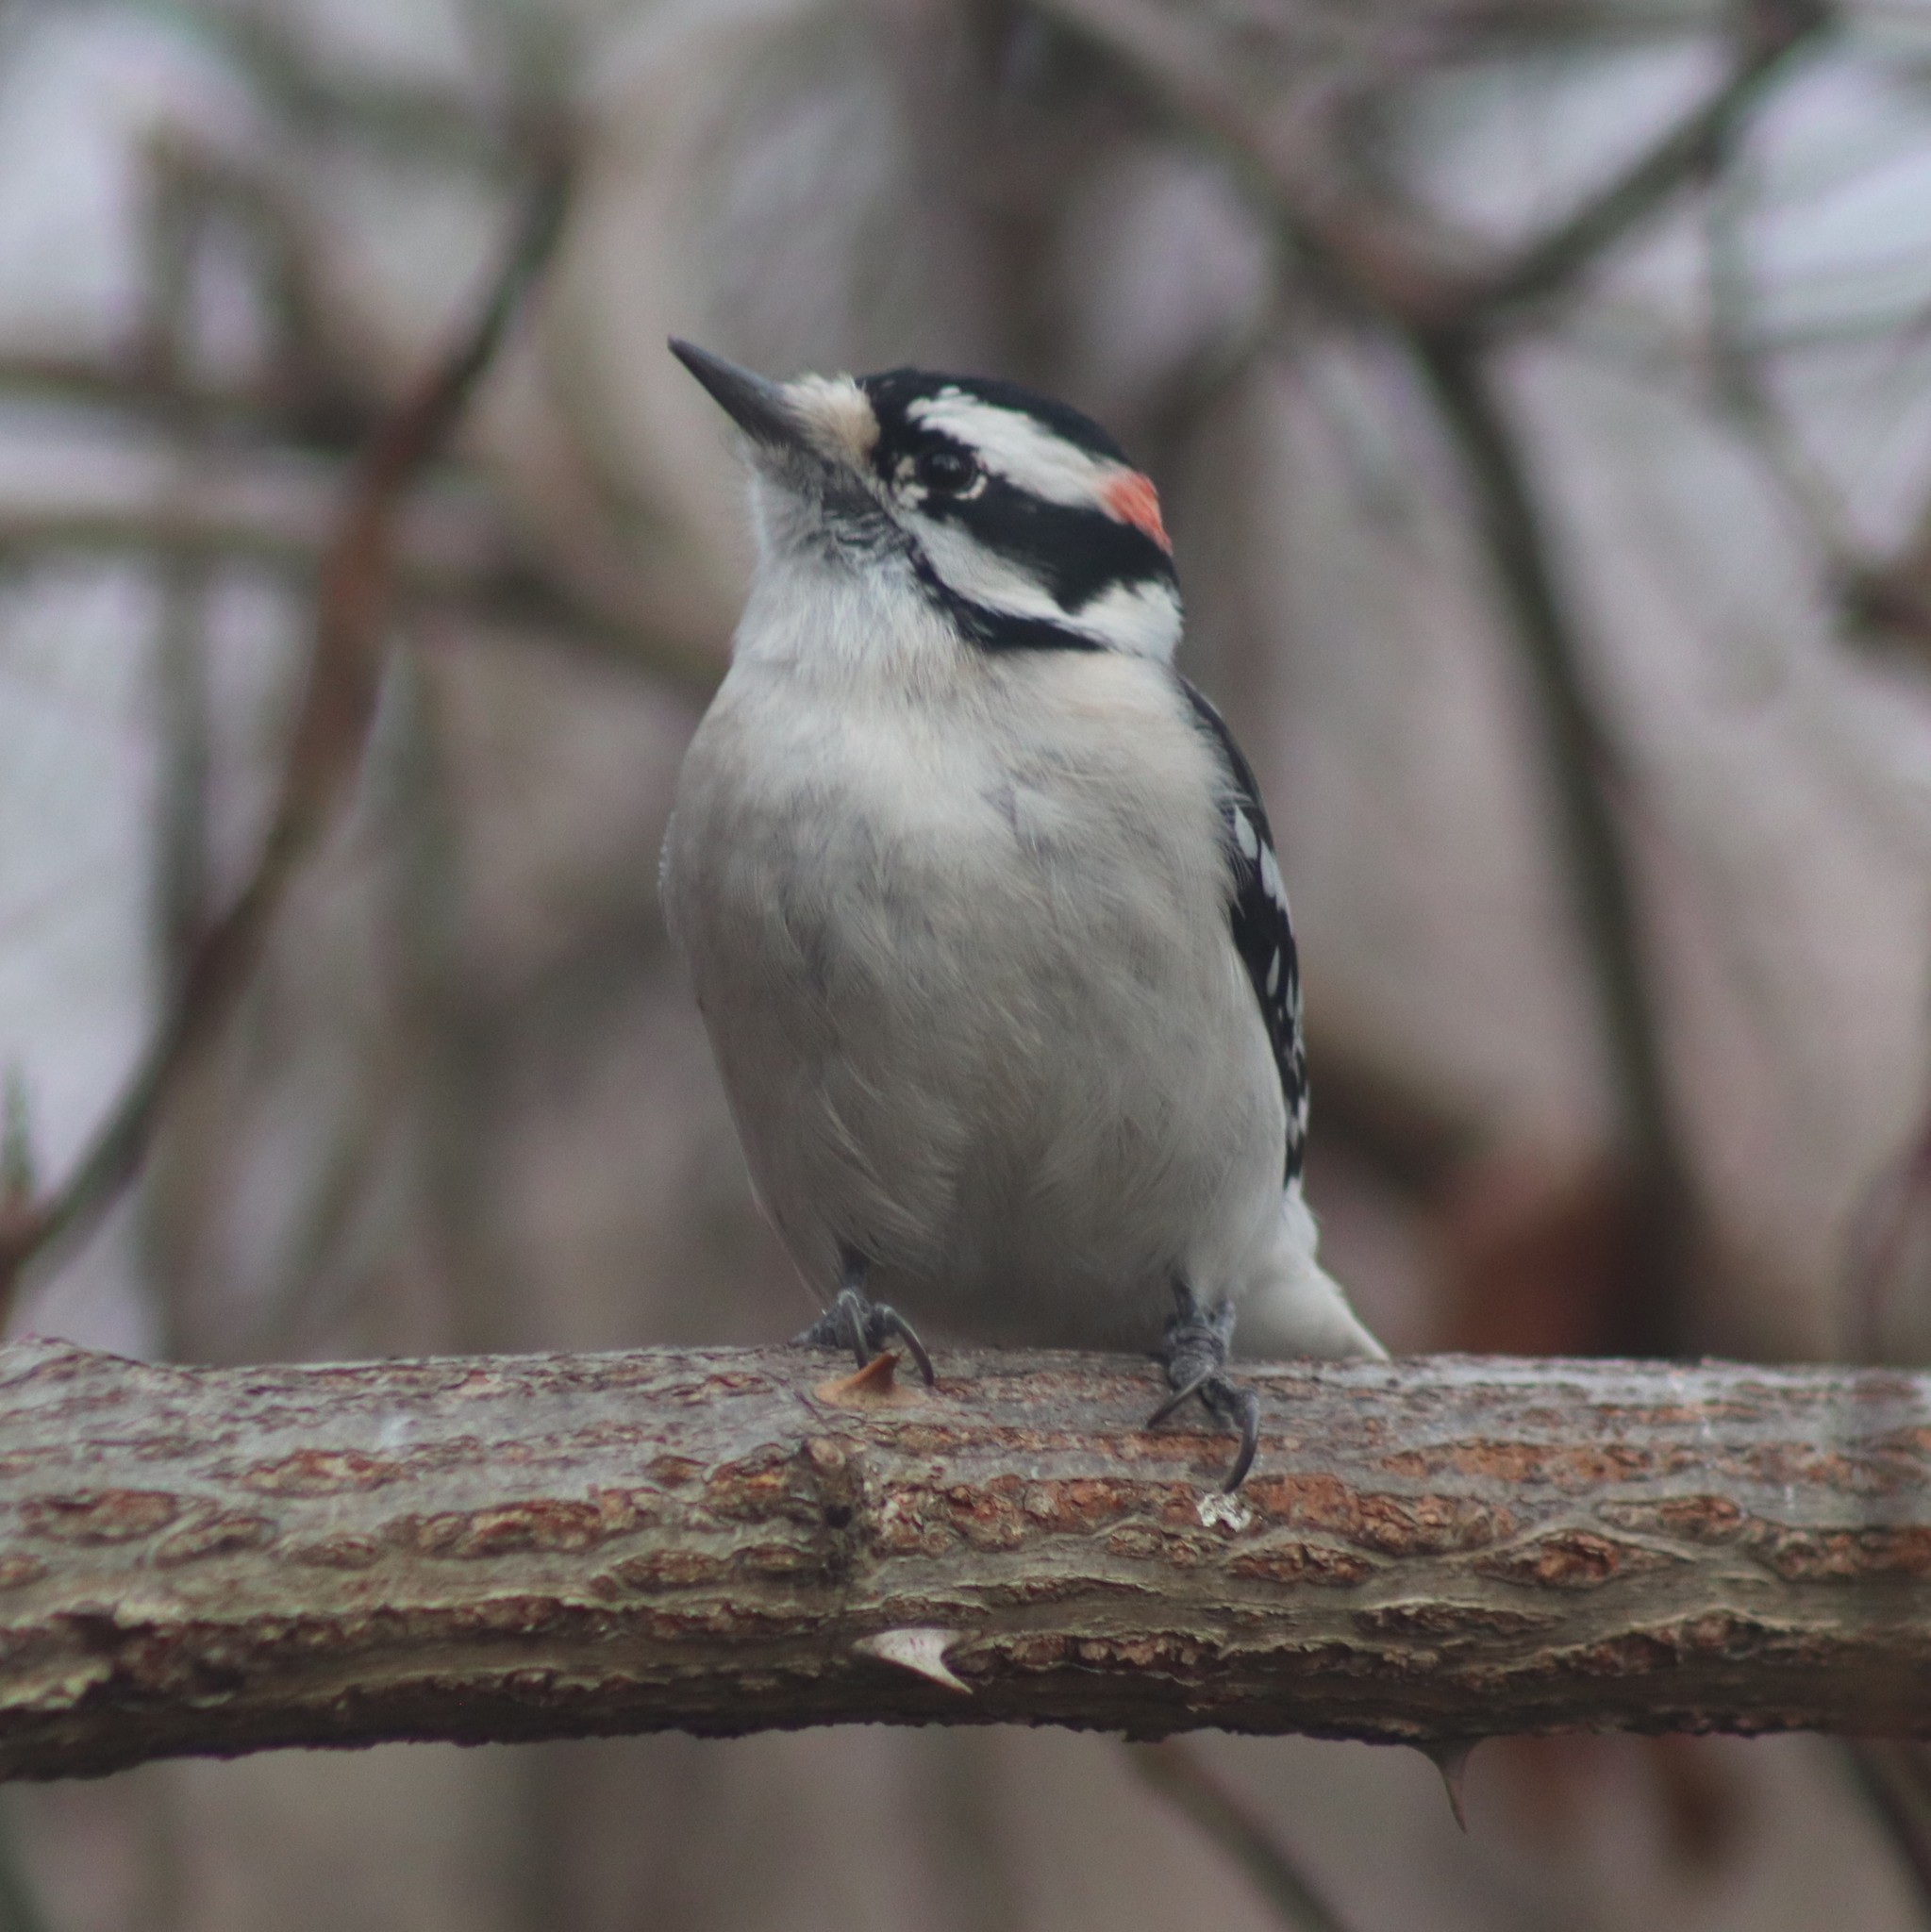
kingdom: Animalia
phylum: Chordata
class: Aves
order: Piciformes
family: Picidae
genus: Dryobates
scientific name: Dryobates pubescens
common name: Downy woodpecker
